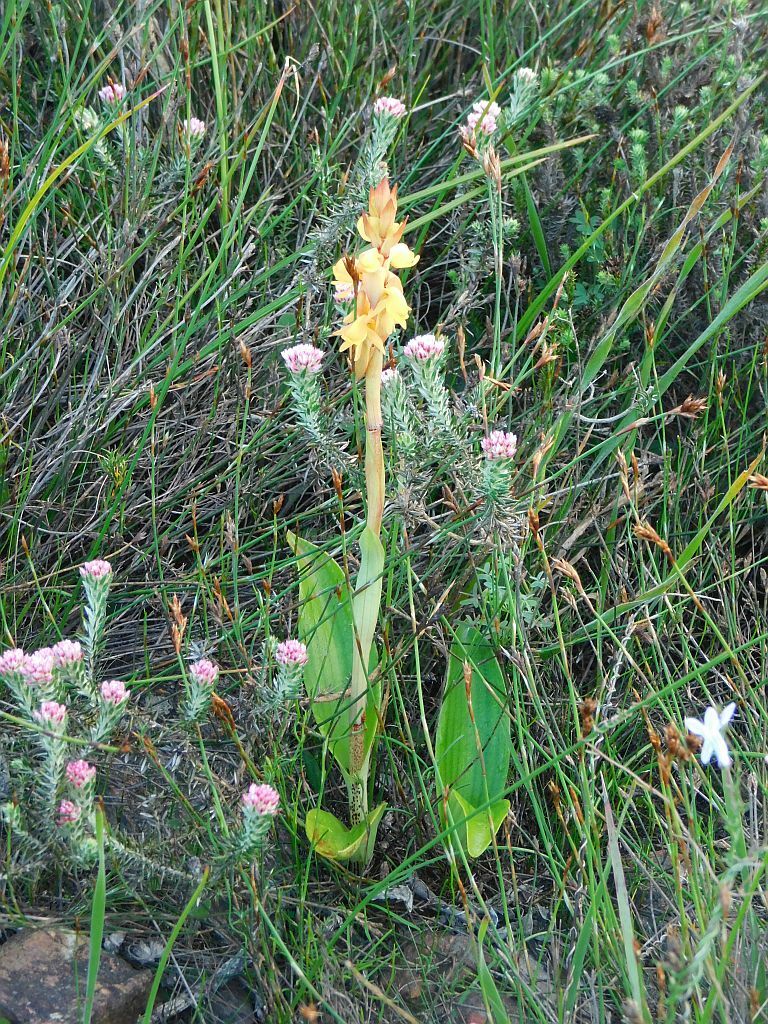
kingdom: Plantae
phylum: Tracheophyta
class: Liliopsida
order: Asparagales
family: Orchidaceae
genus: Satyrium
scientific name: Satyrium coriifolium
